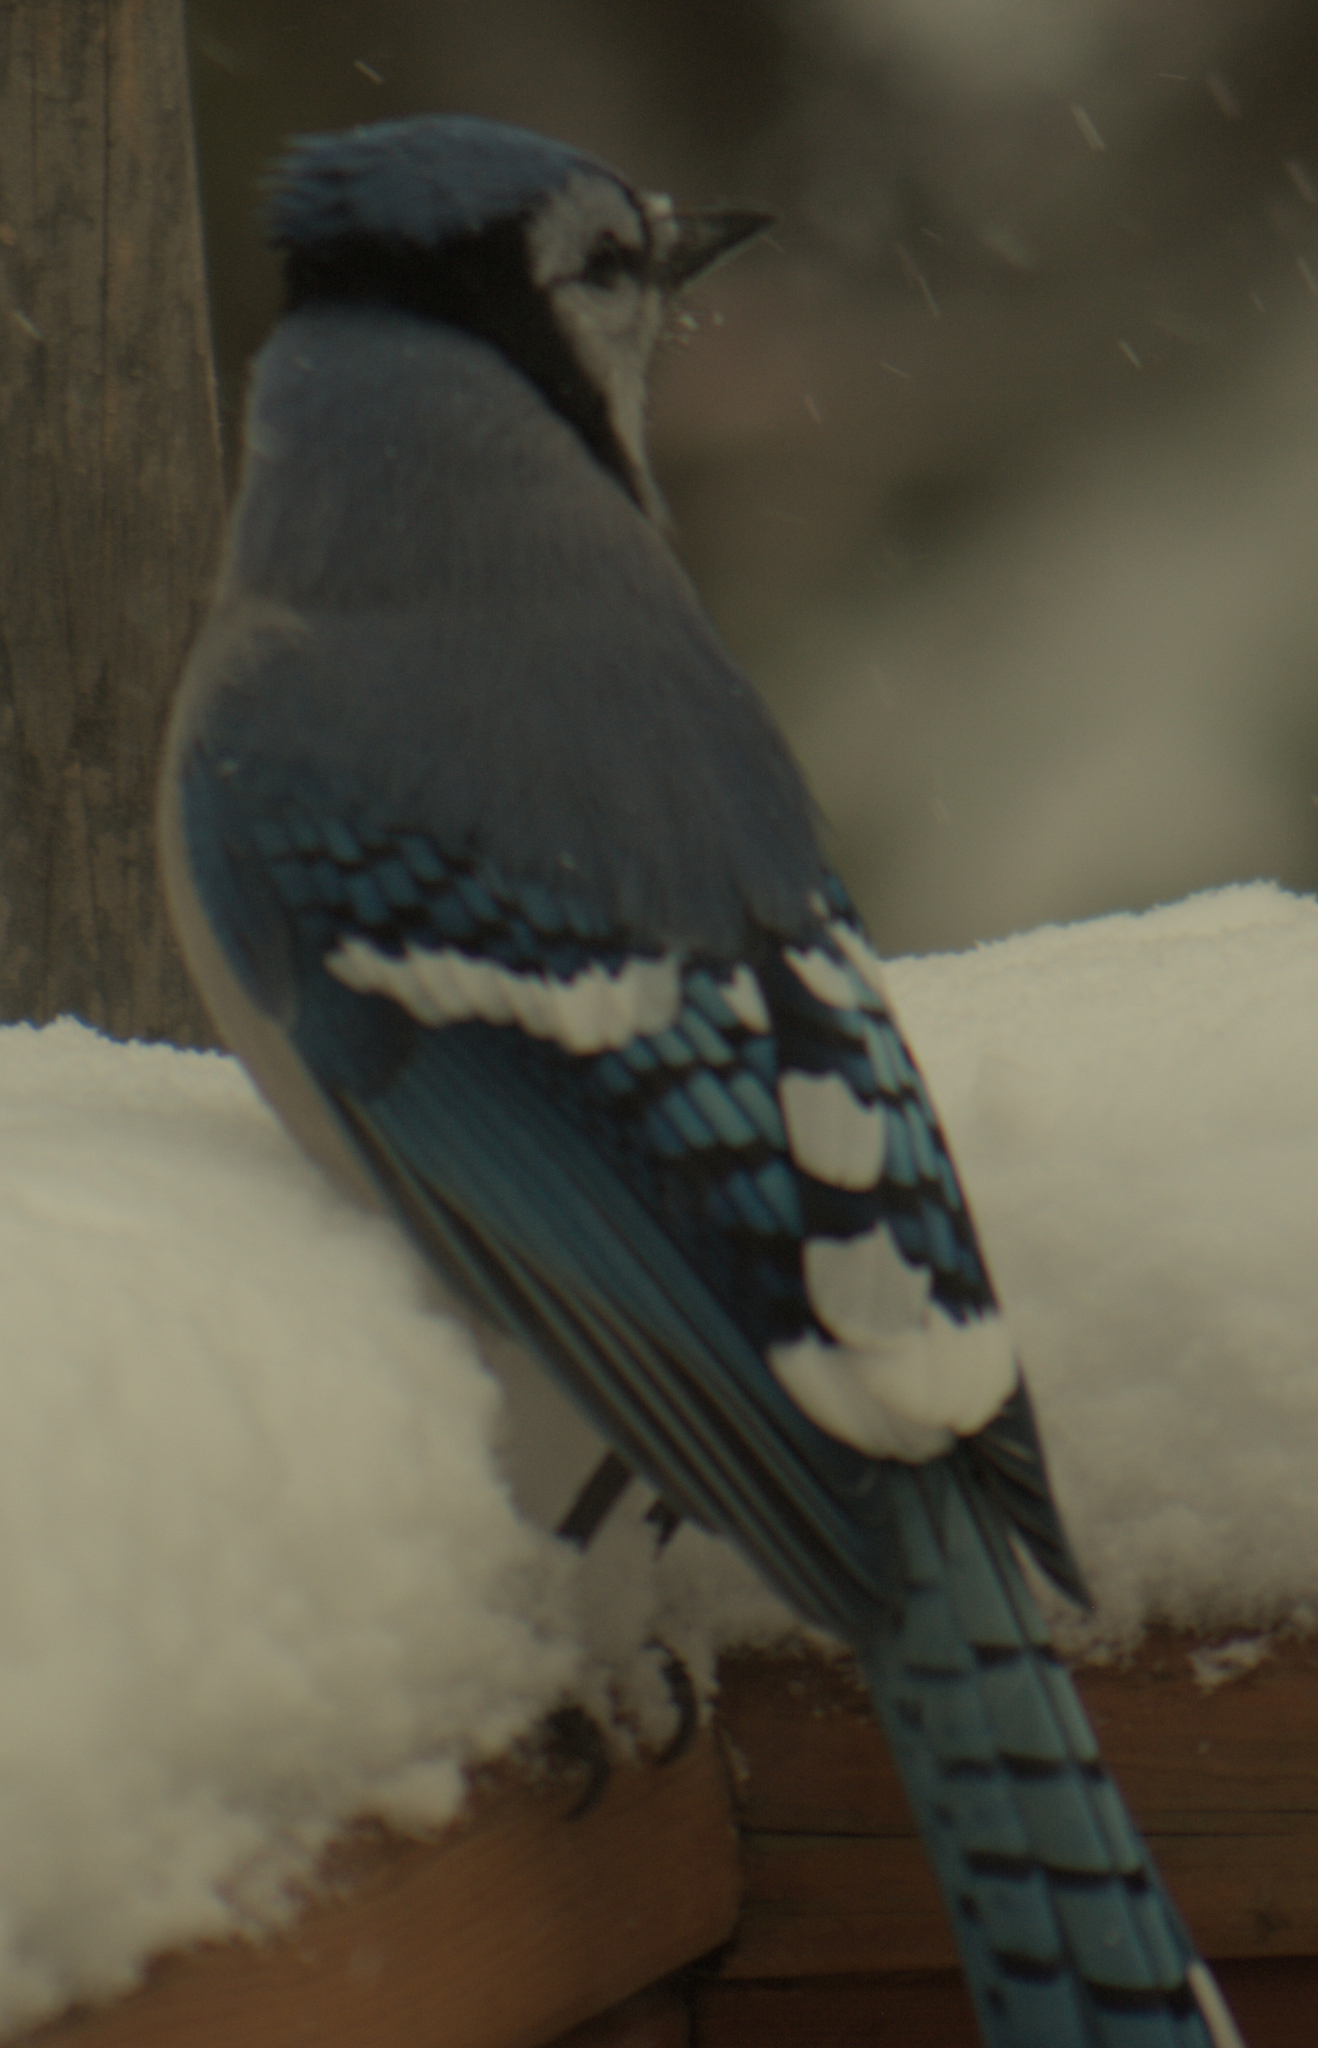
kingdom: Animalia
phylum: Chordata
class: Aves
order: Passeriformes
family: Corvidae
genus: Cyanocitta
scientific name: Cyanocitta cristata
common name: Blue jay
